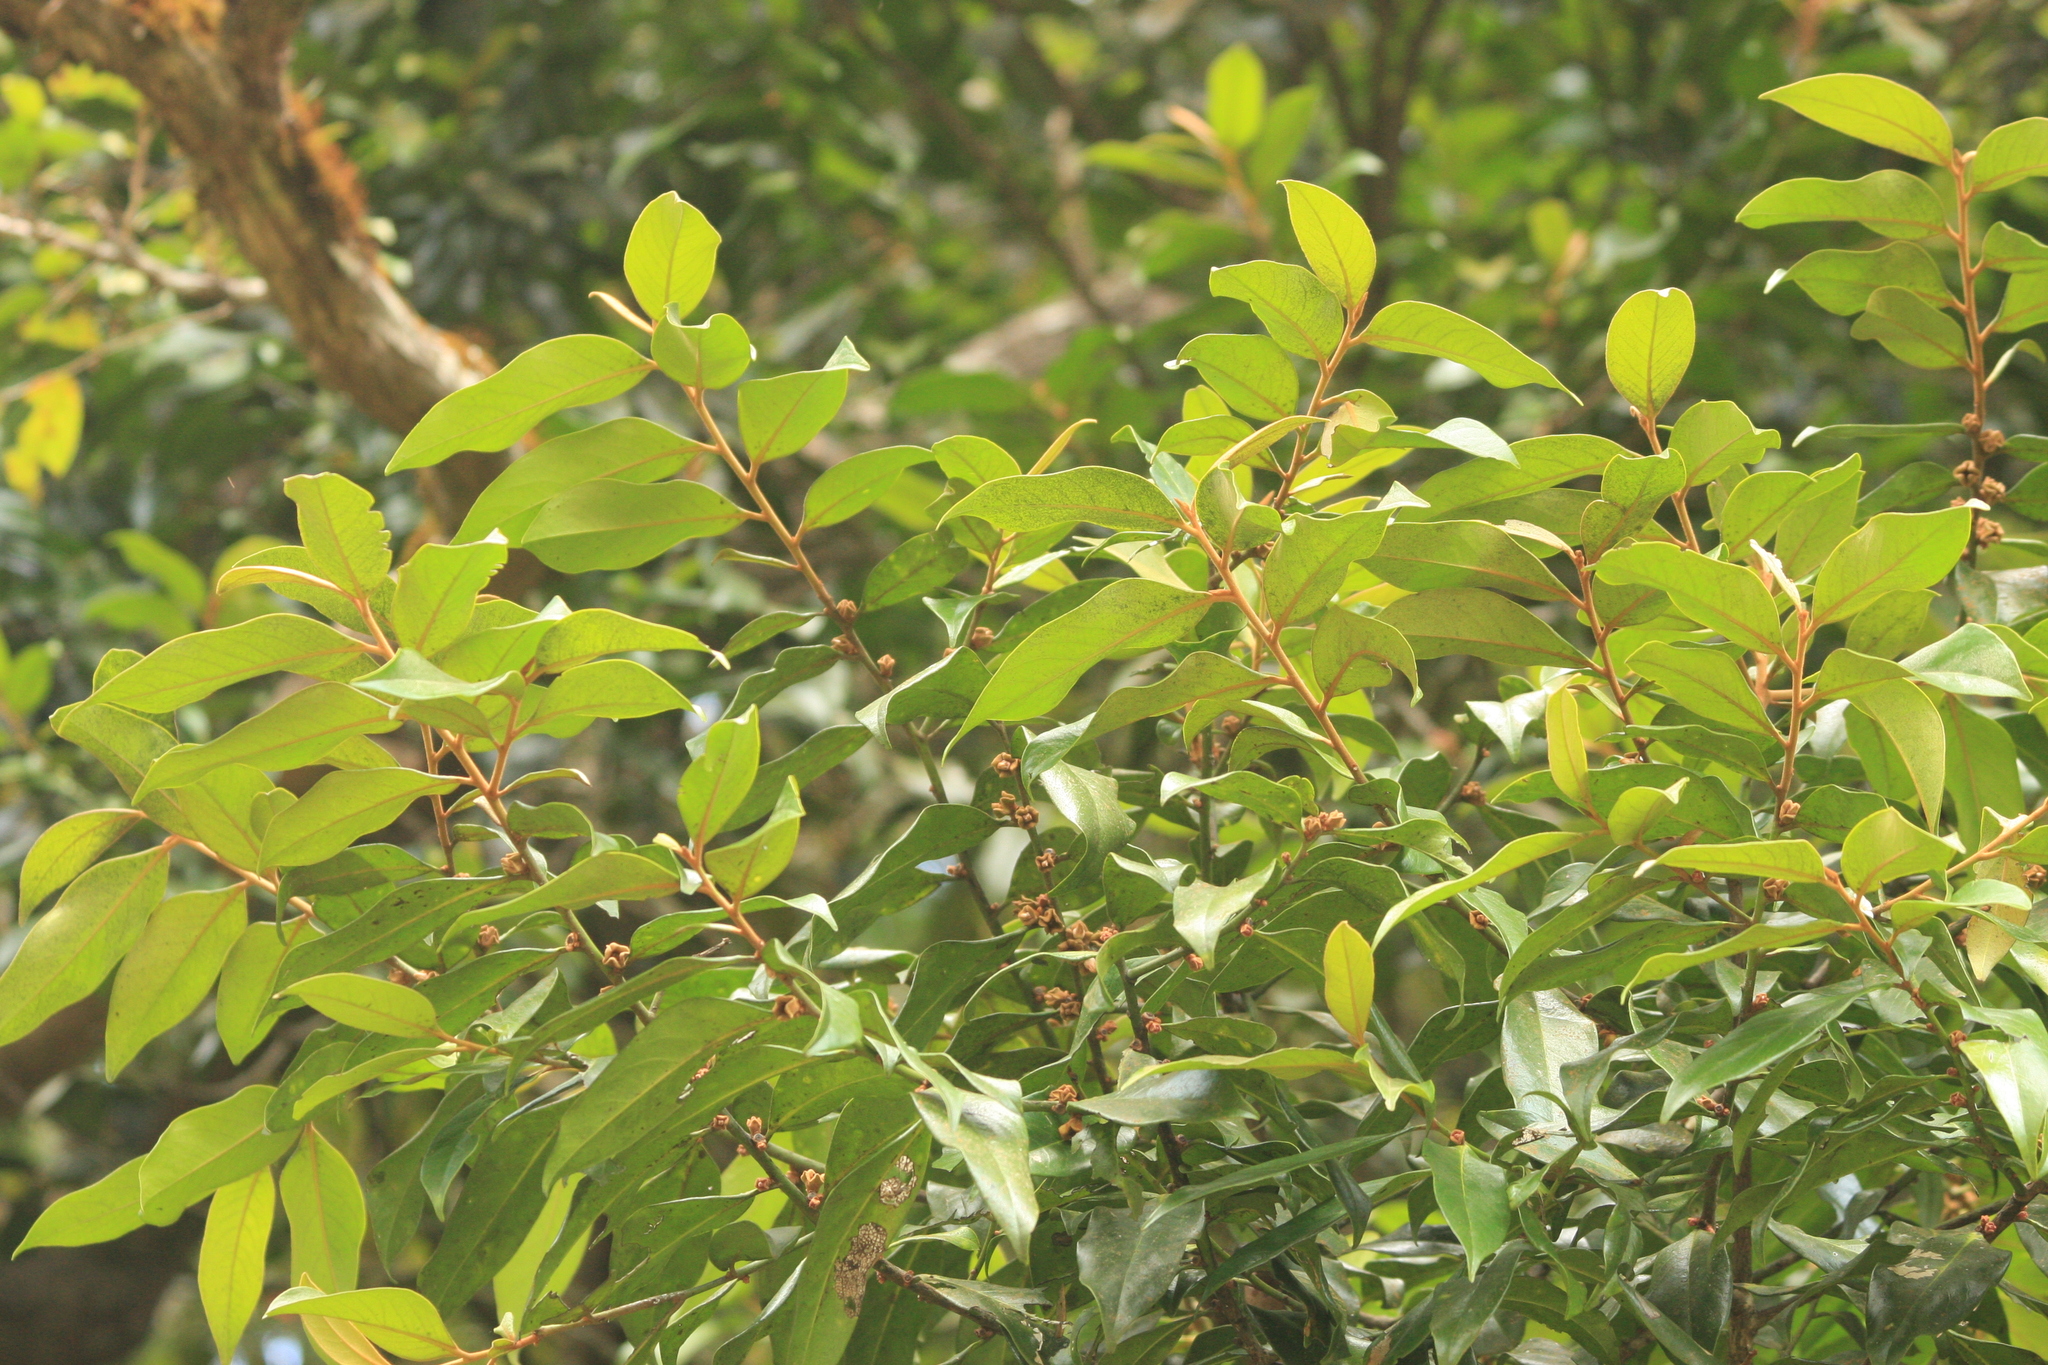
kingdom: Plantae
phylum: Tracheophyta
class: Magnoliopsida
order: Ericales
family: Ebenaceae
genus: Diospyros
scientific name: Diospyros nilagirica
